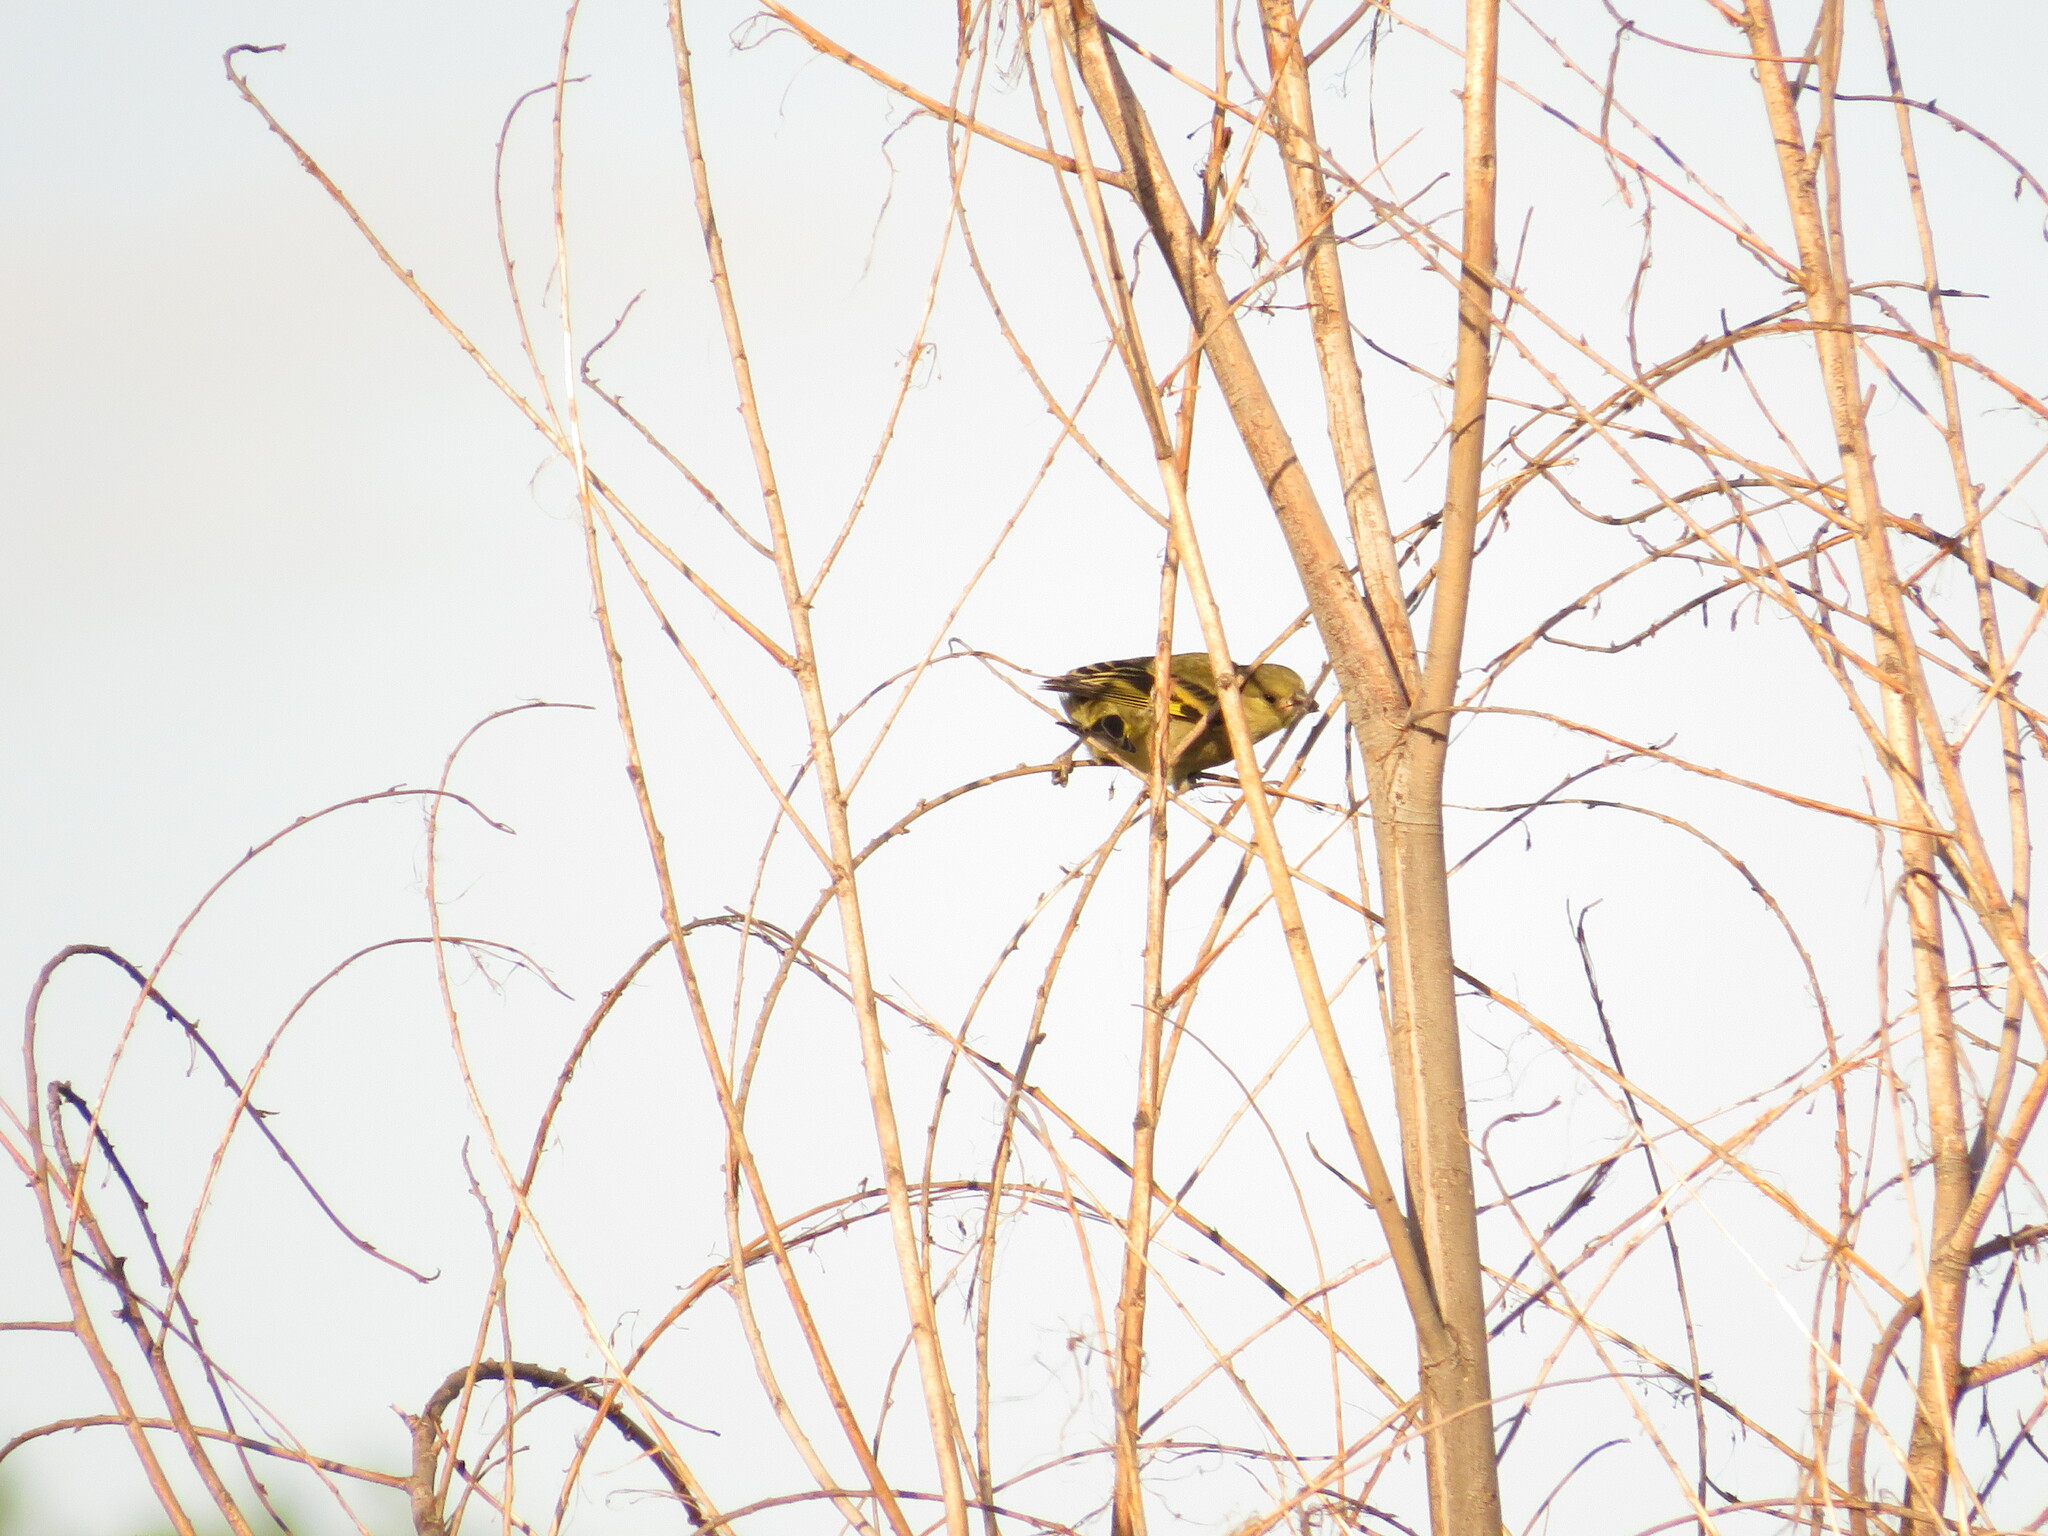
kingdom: Animalia
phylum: Chordata
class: Aves
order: Passeriformes
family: Fringillidae
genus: Spinus
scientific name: Spinus magellanicus
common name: Hooded siskin
